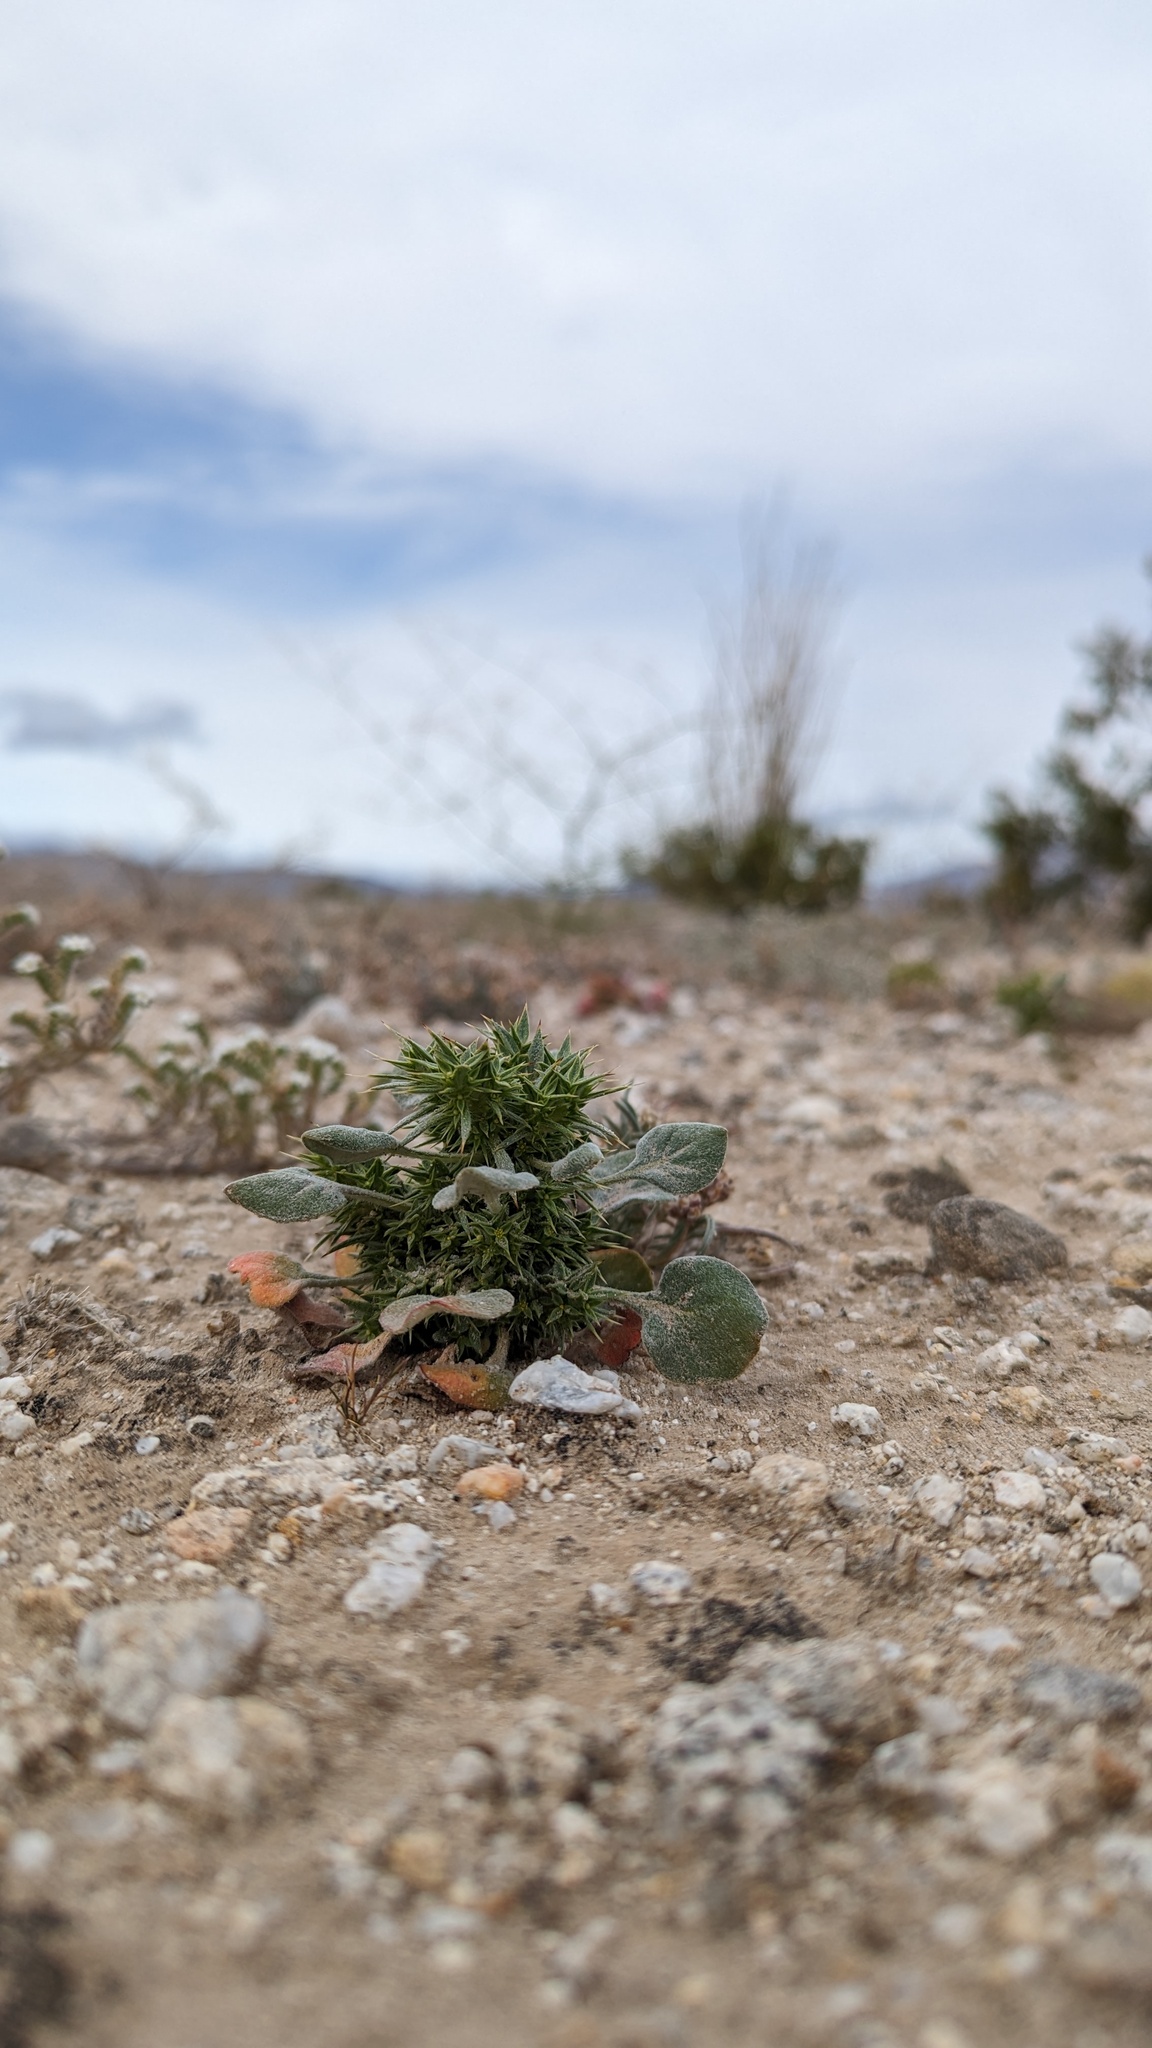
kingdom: Plantae
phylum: Tracheophyta
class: Magnoliopsida
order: Caryophyllales
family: Polygonaceae
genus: Chorizanthe
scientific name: Chorizanthe rigida
